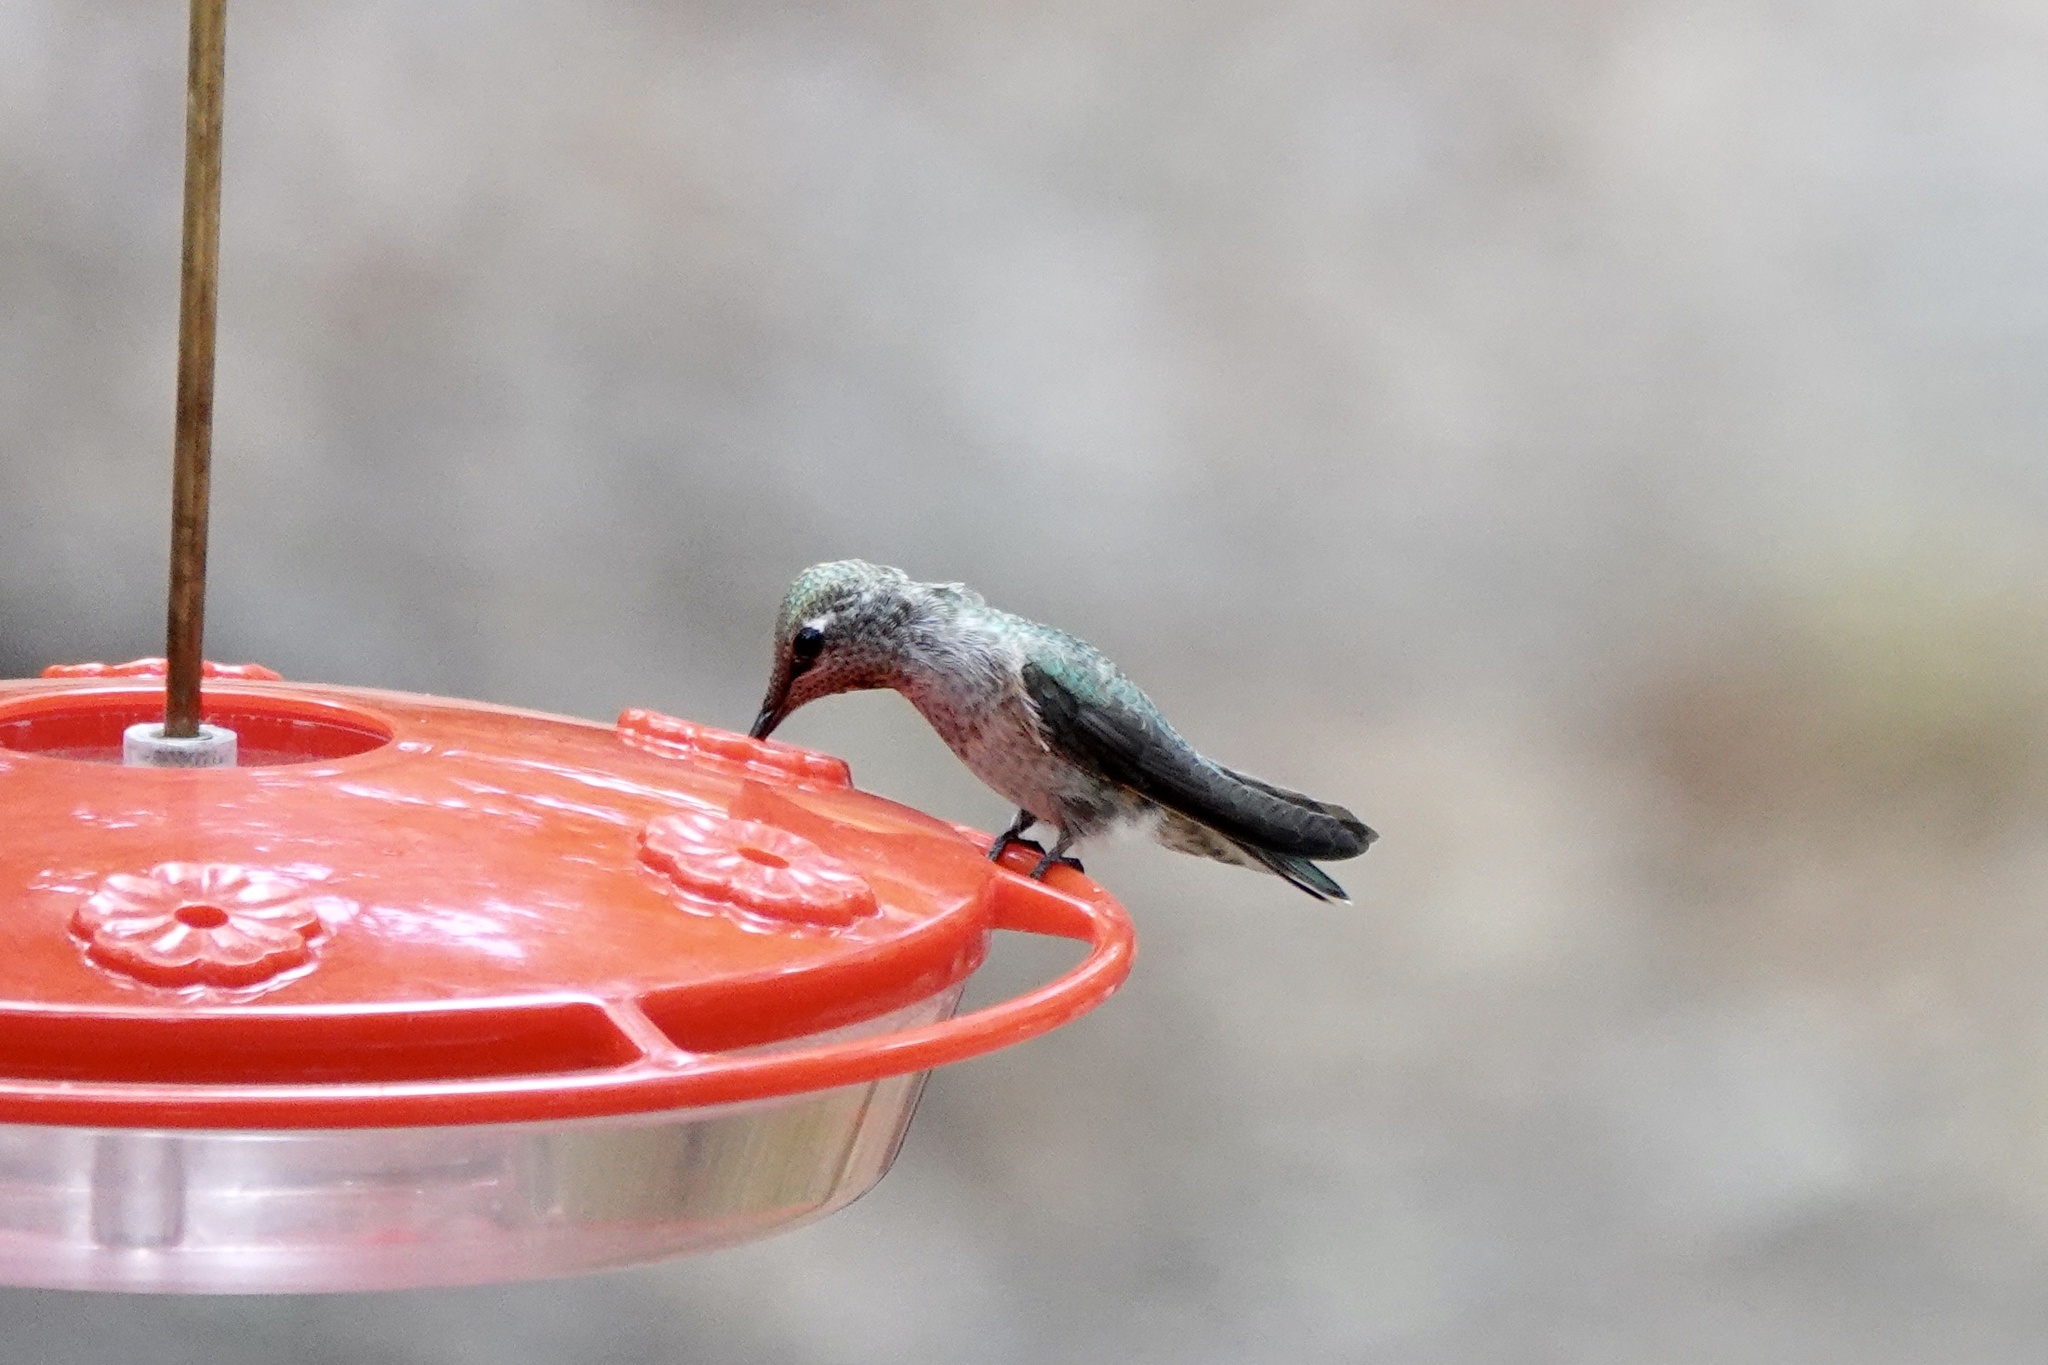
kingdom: Animalia
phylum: Chordata
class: Aves
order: Apodiformes
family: Trochilidae
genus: Archilochus
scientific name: Archilochus alexandri
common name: Black-chinned hummingbird
